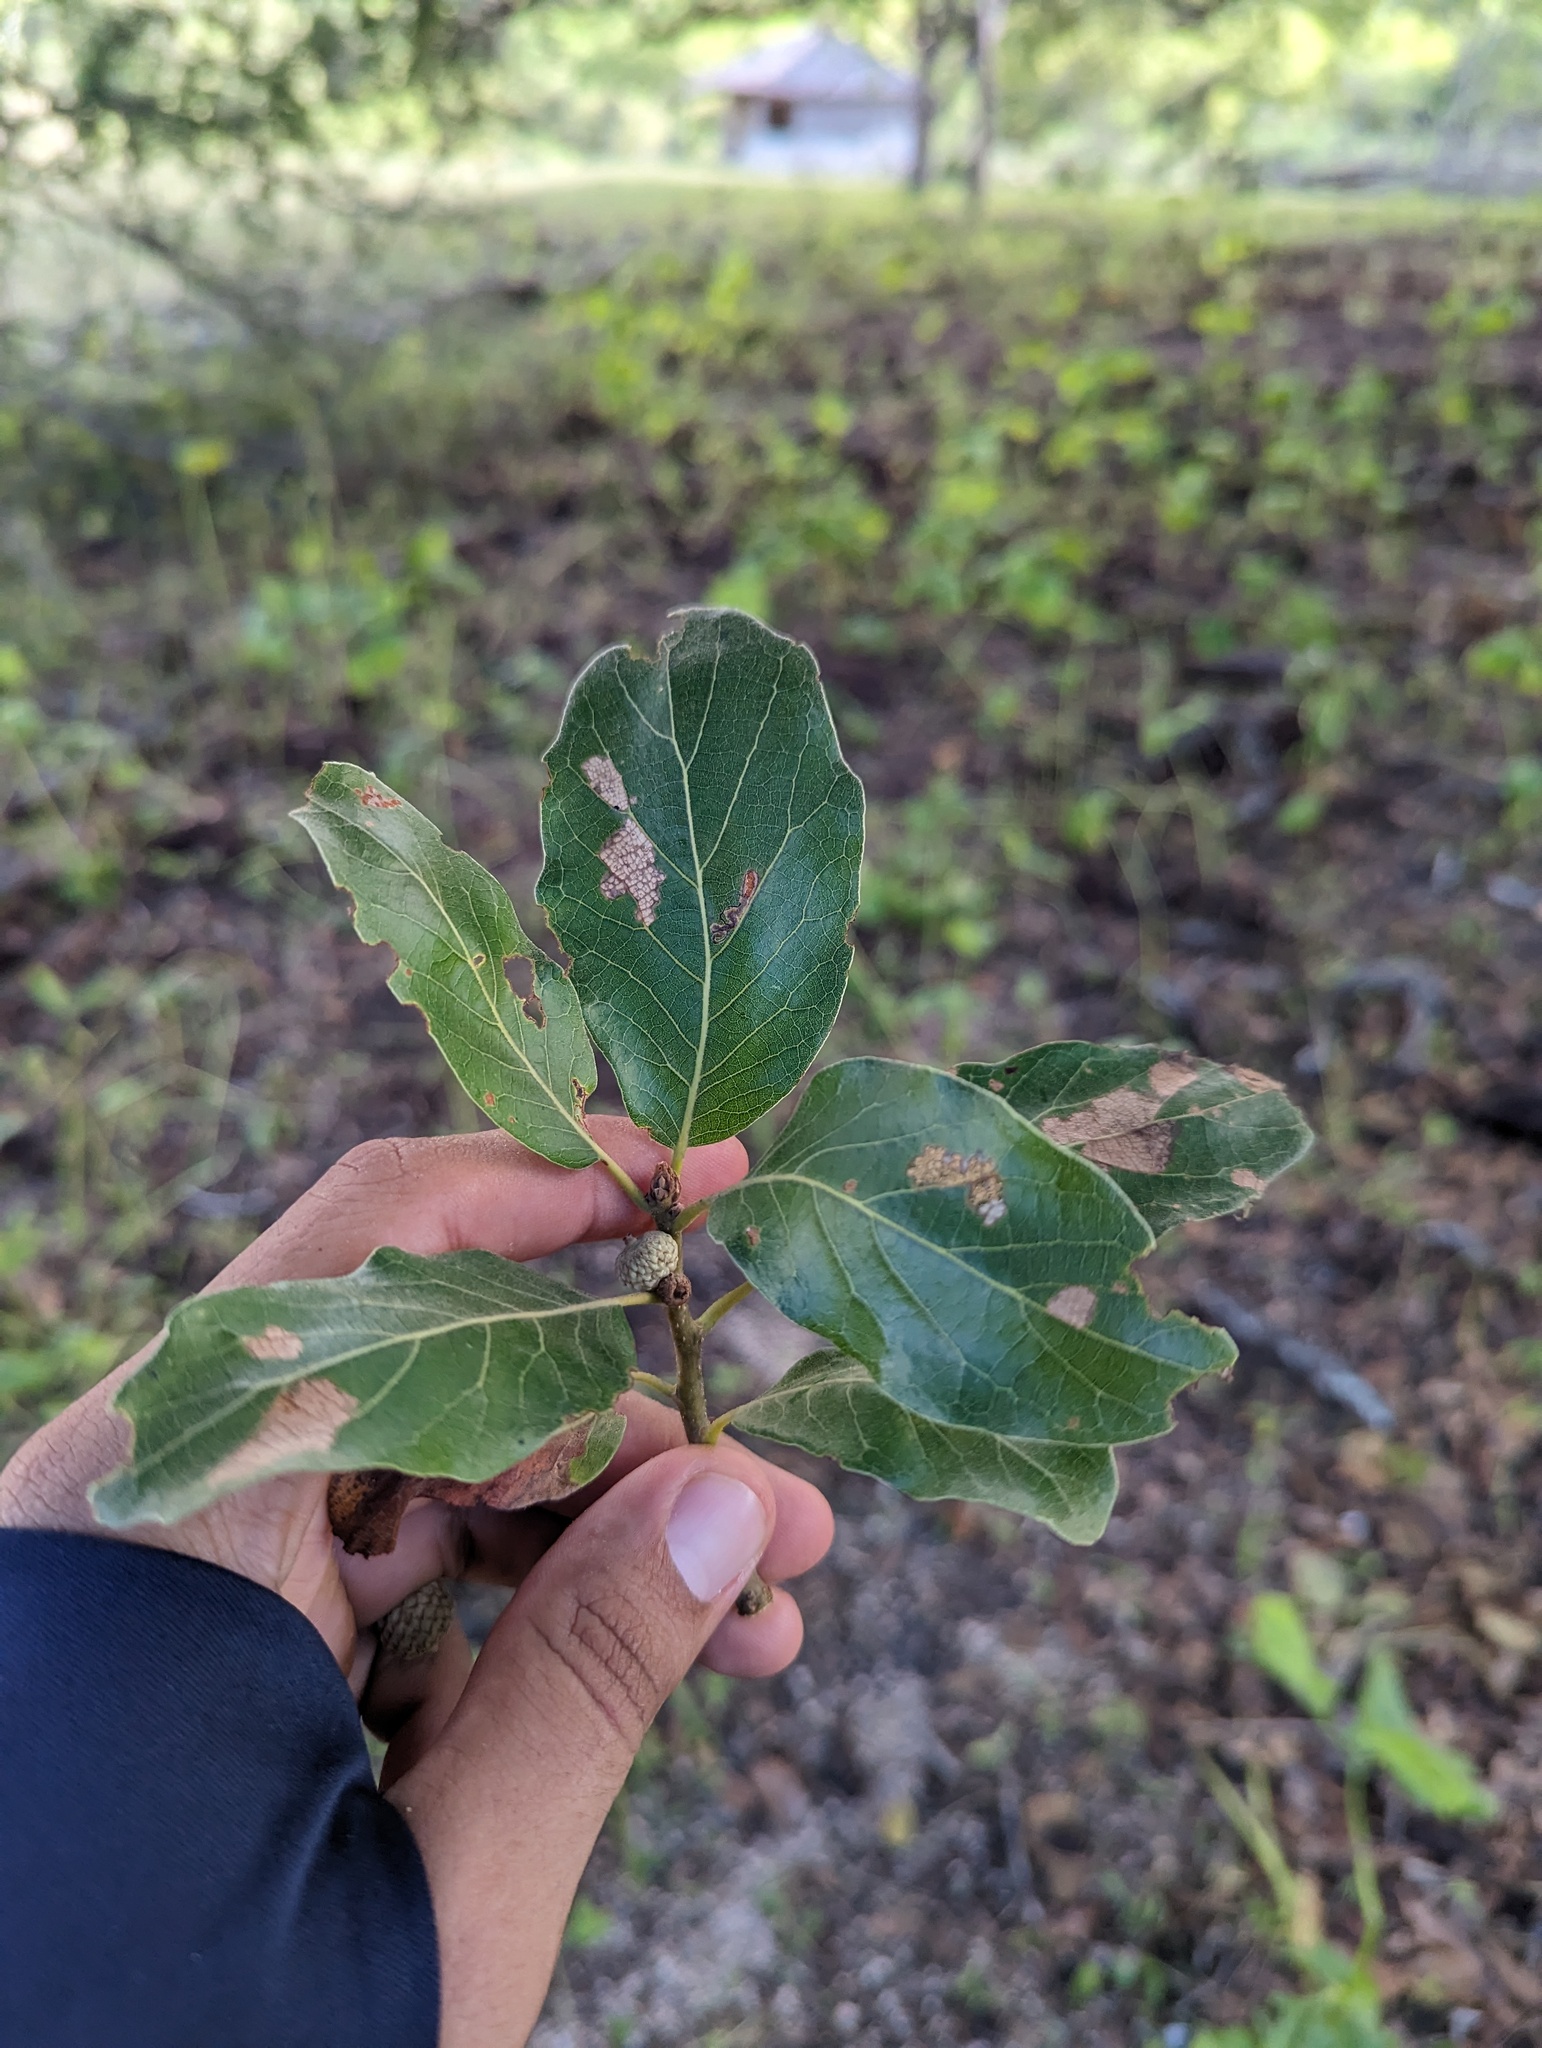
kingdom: Plantae
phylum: Tracheophyta
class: Magnoliopsida
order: Fagales
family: Fagaceae
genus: Quercus
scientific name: Quercus tuberculata
